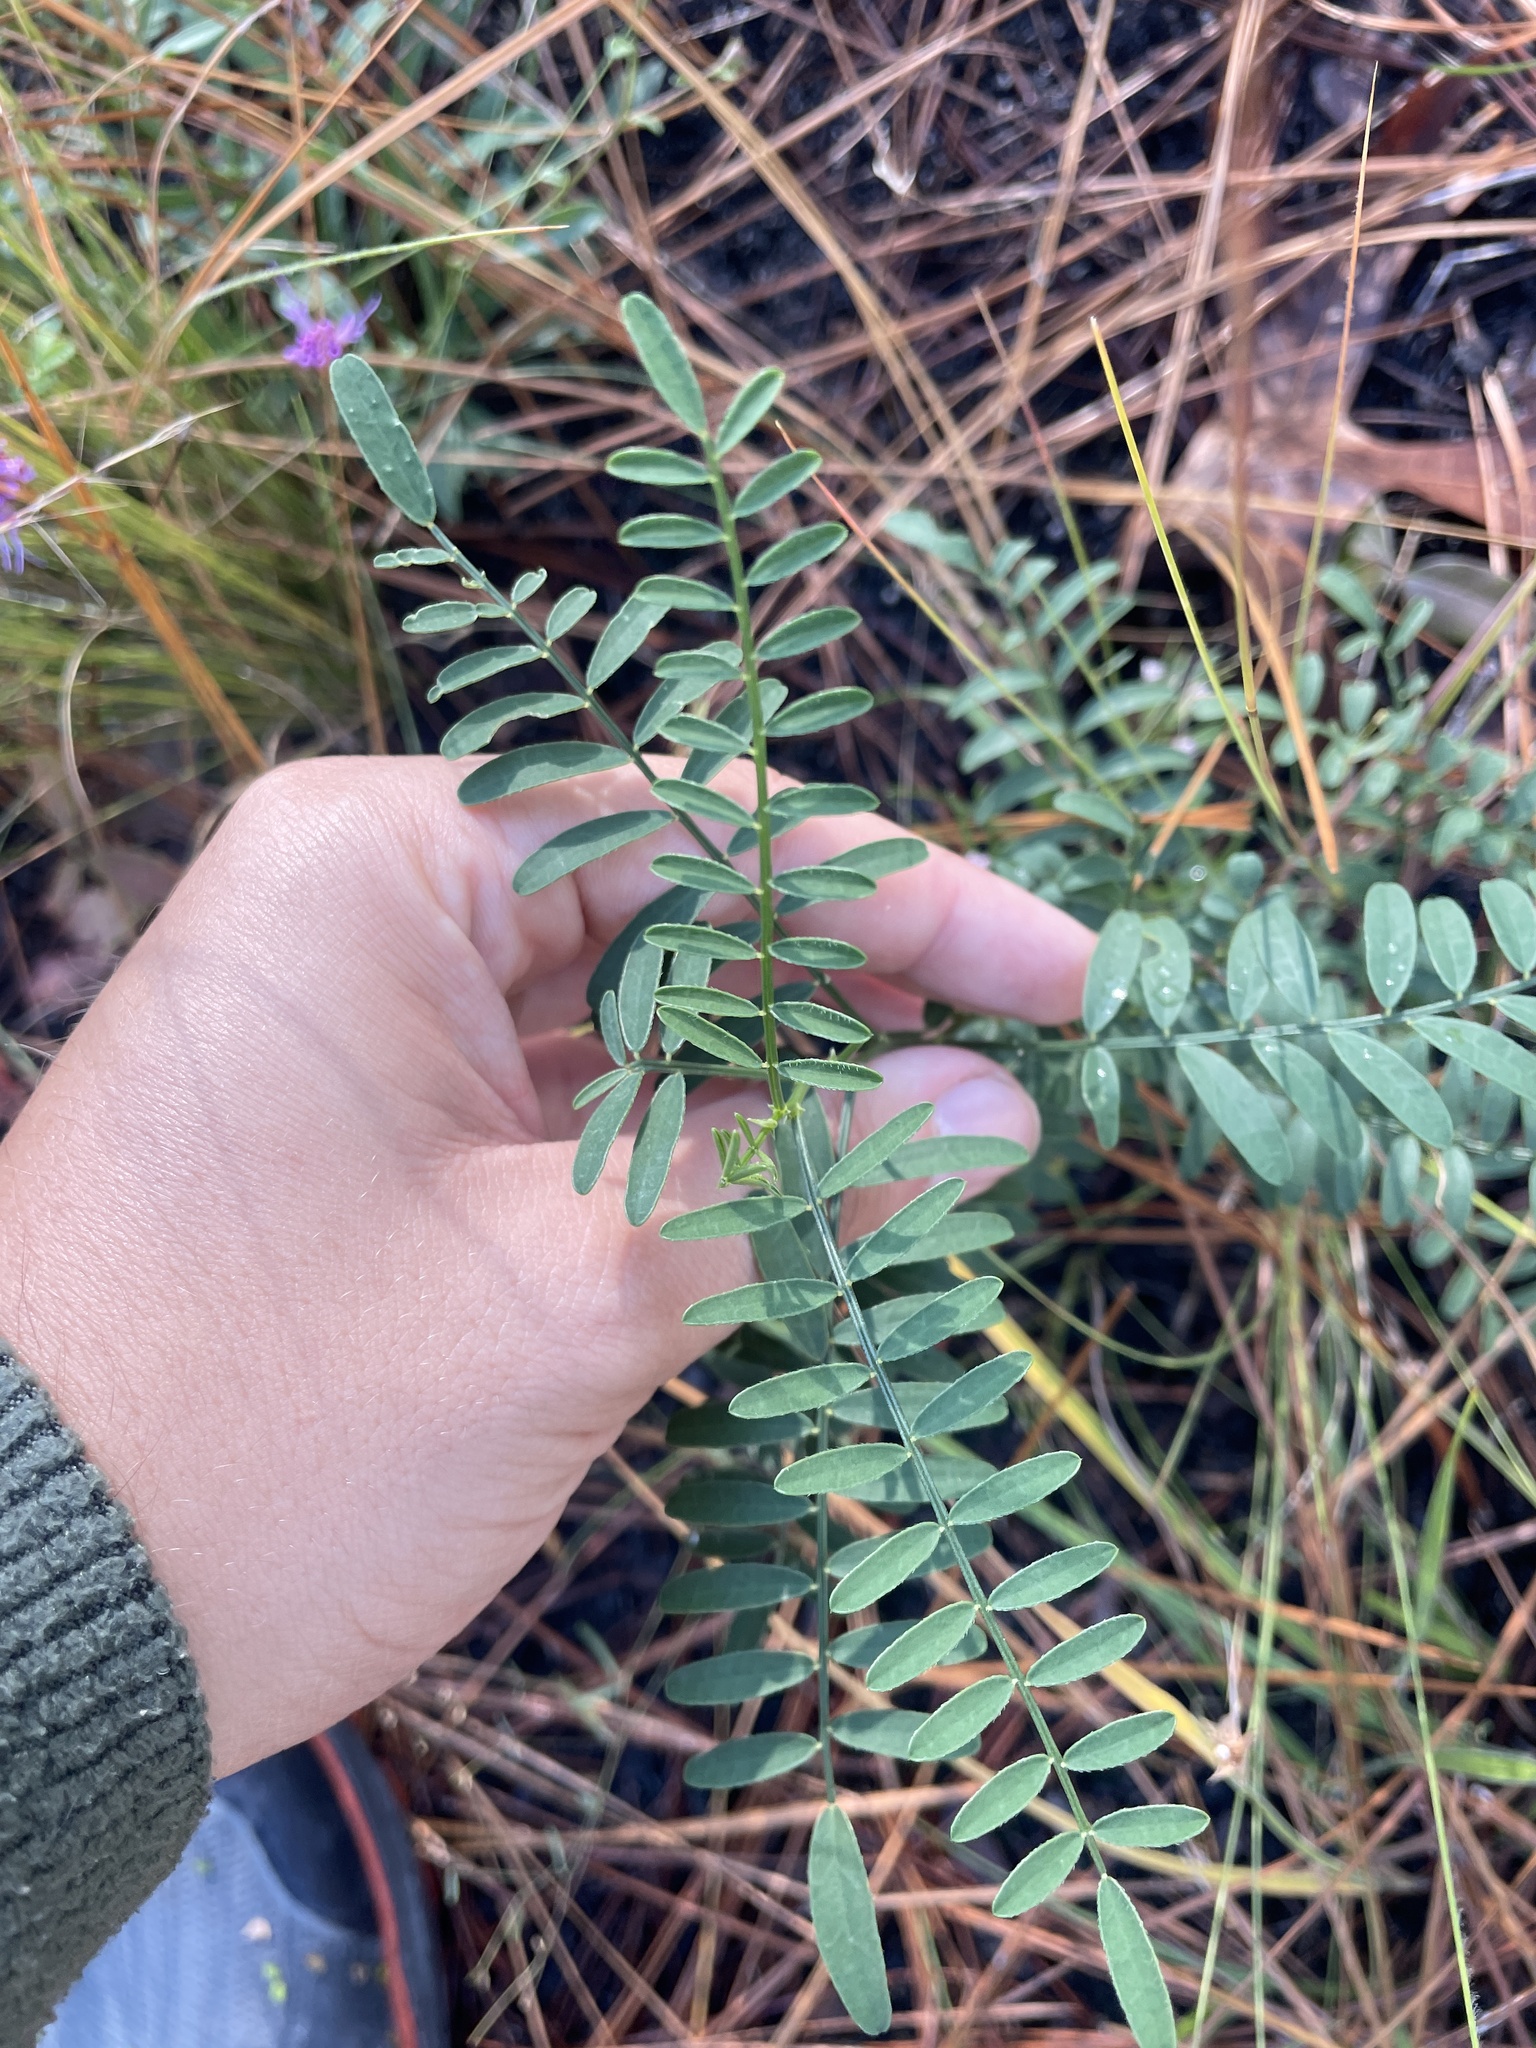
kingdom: Plantae
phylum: Tracheophyta
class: Magnoliopsida
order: Fabales
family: Fabaceae
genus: Astragalus
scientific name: Astragalus michauxii
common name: Michaux milk-vetch
